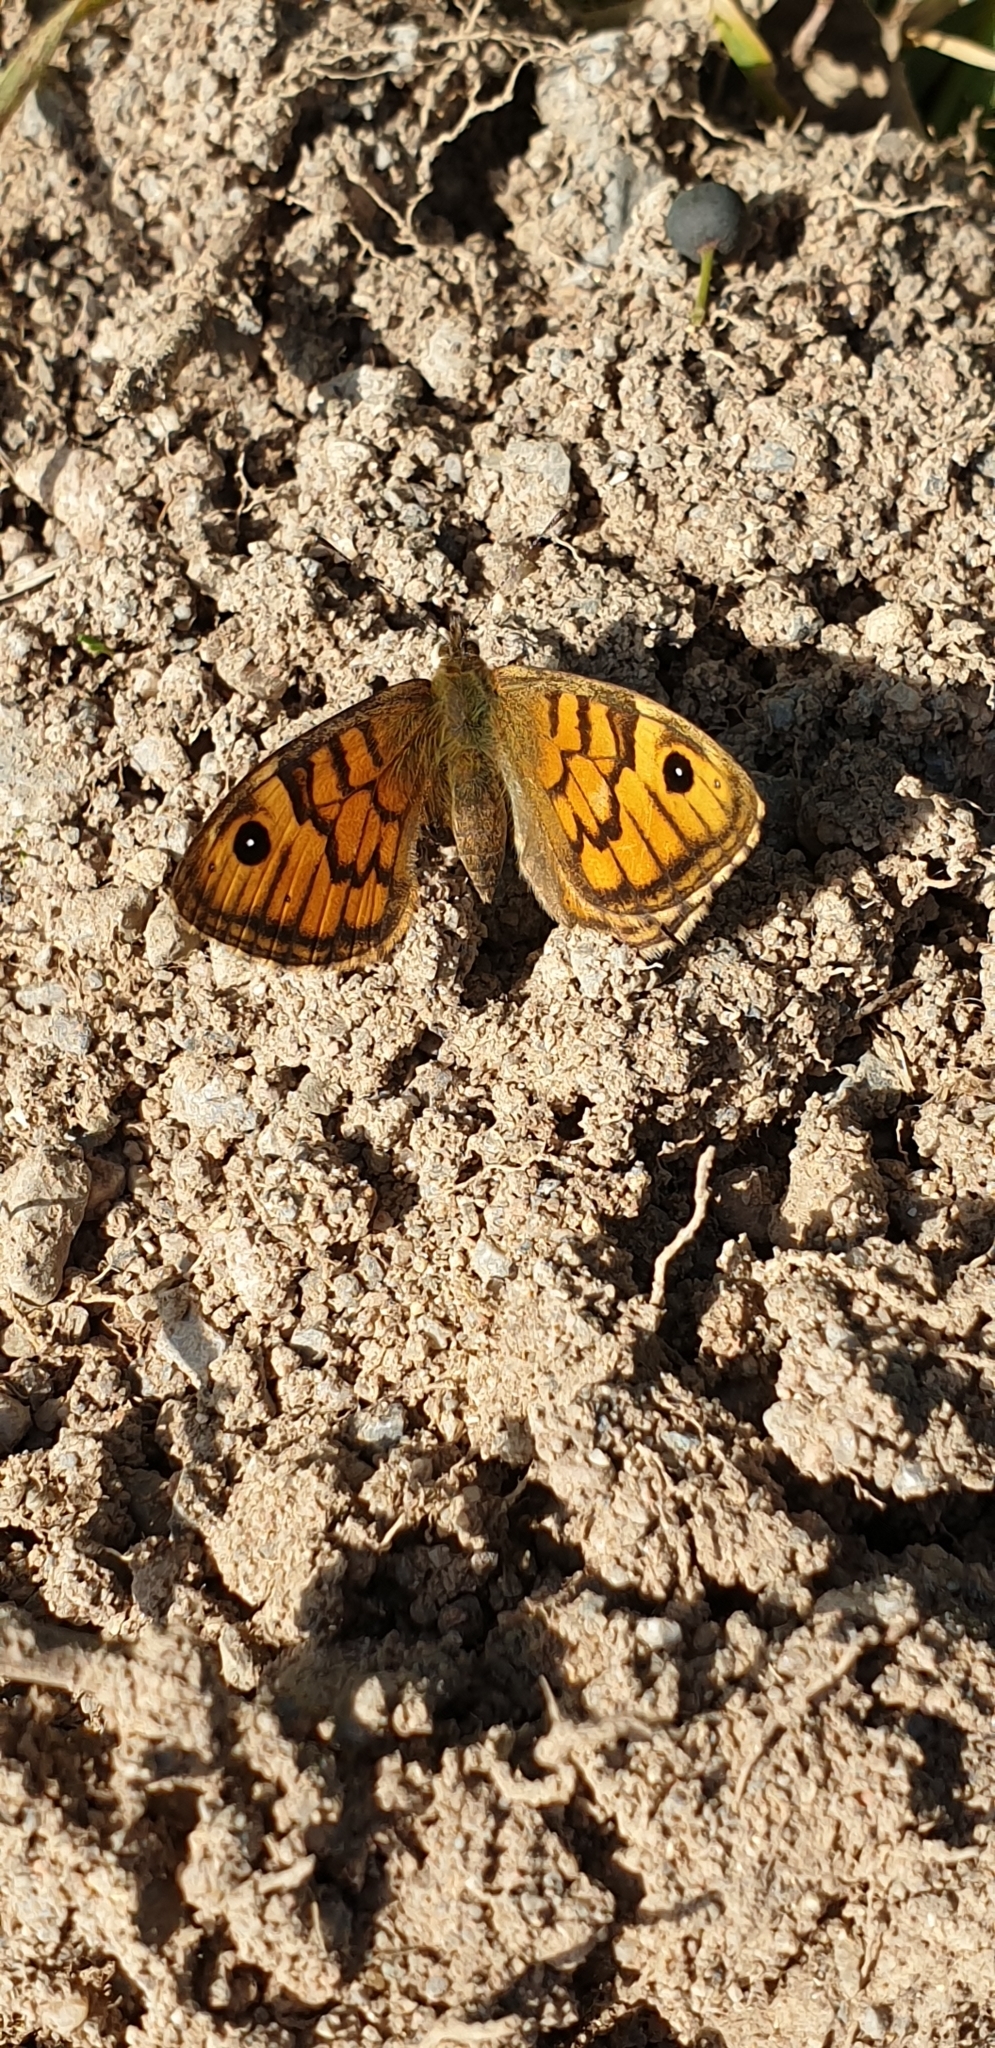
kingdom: Animalia
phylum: Arthropoda
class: Insecta
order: Lepidoptera
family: Nymphalidae
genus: Pararge
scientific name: Pararge Lasiommata megera
